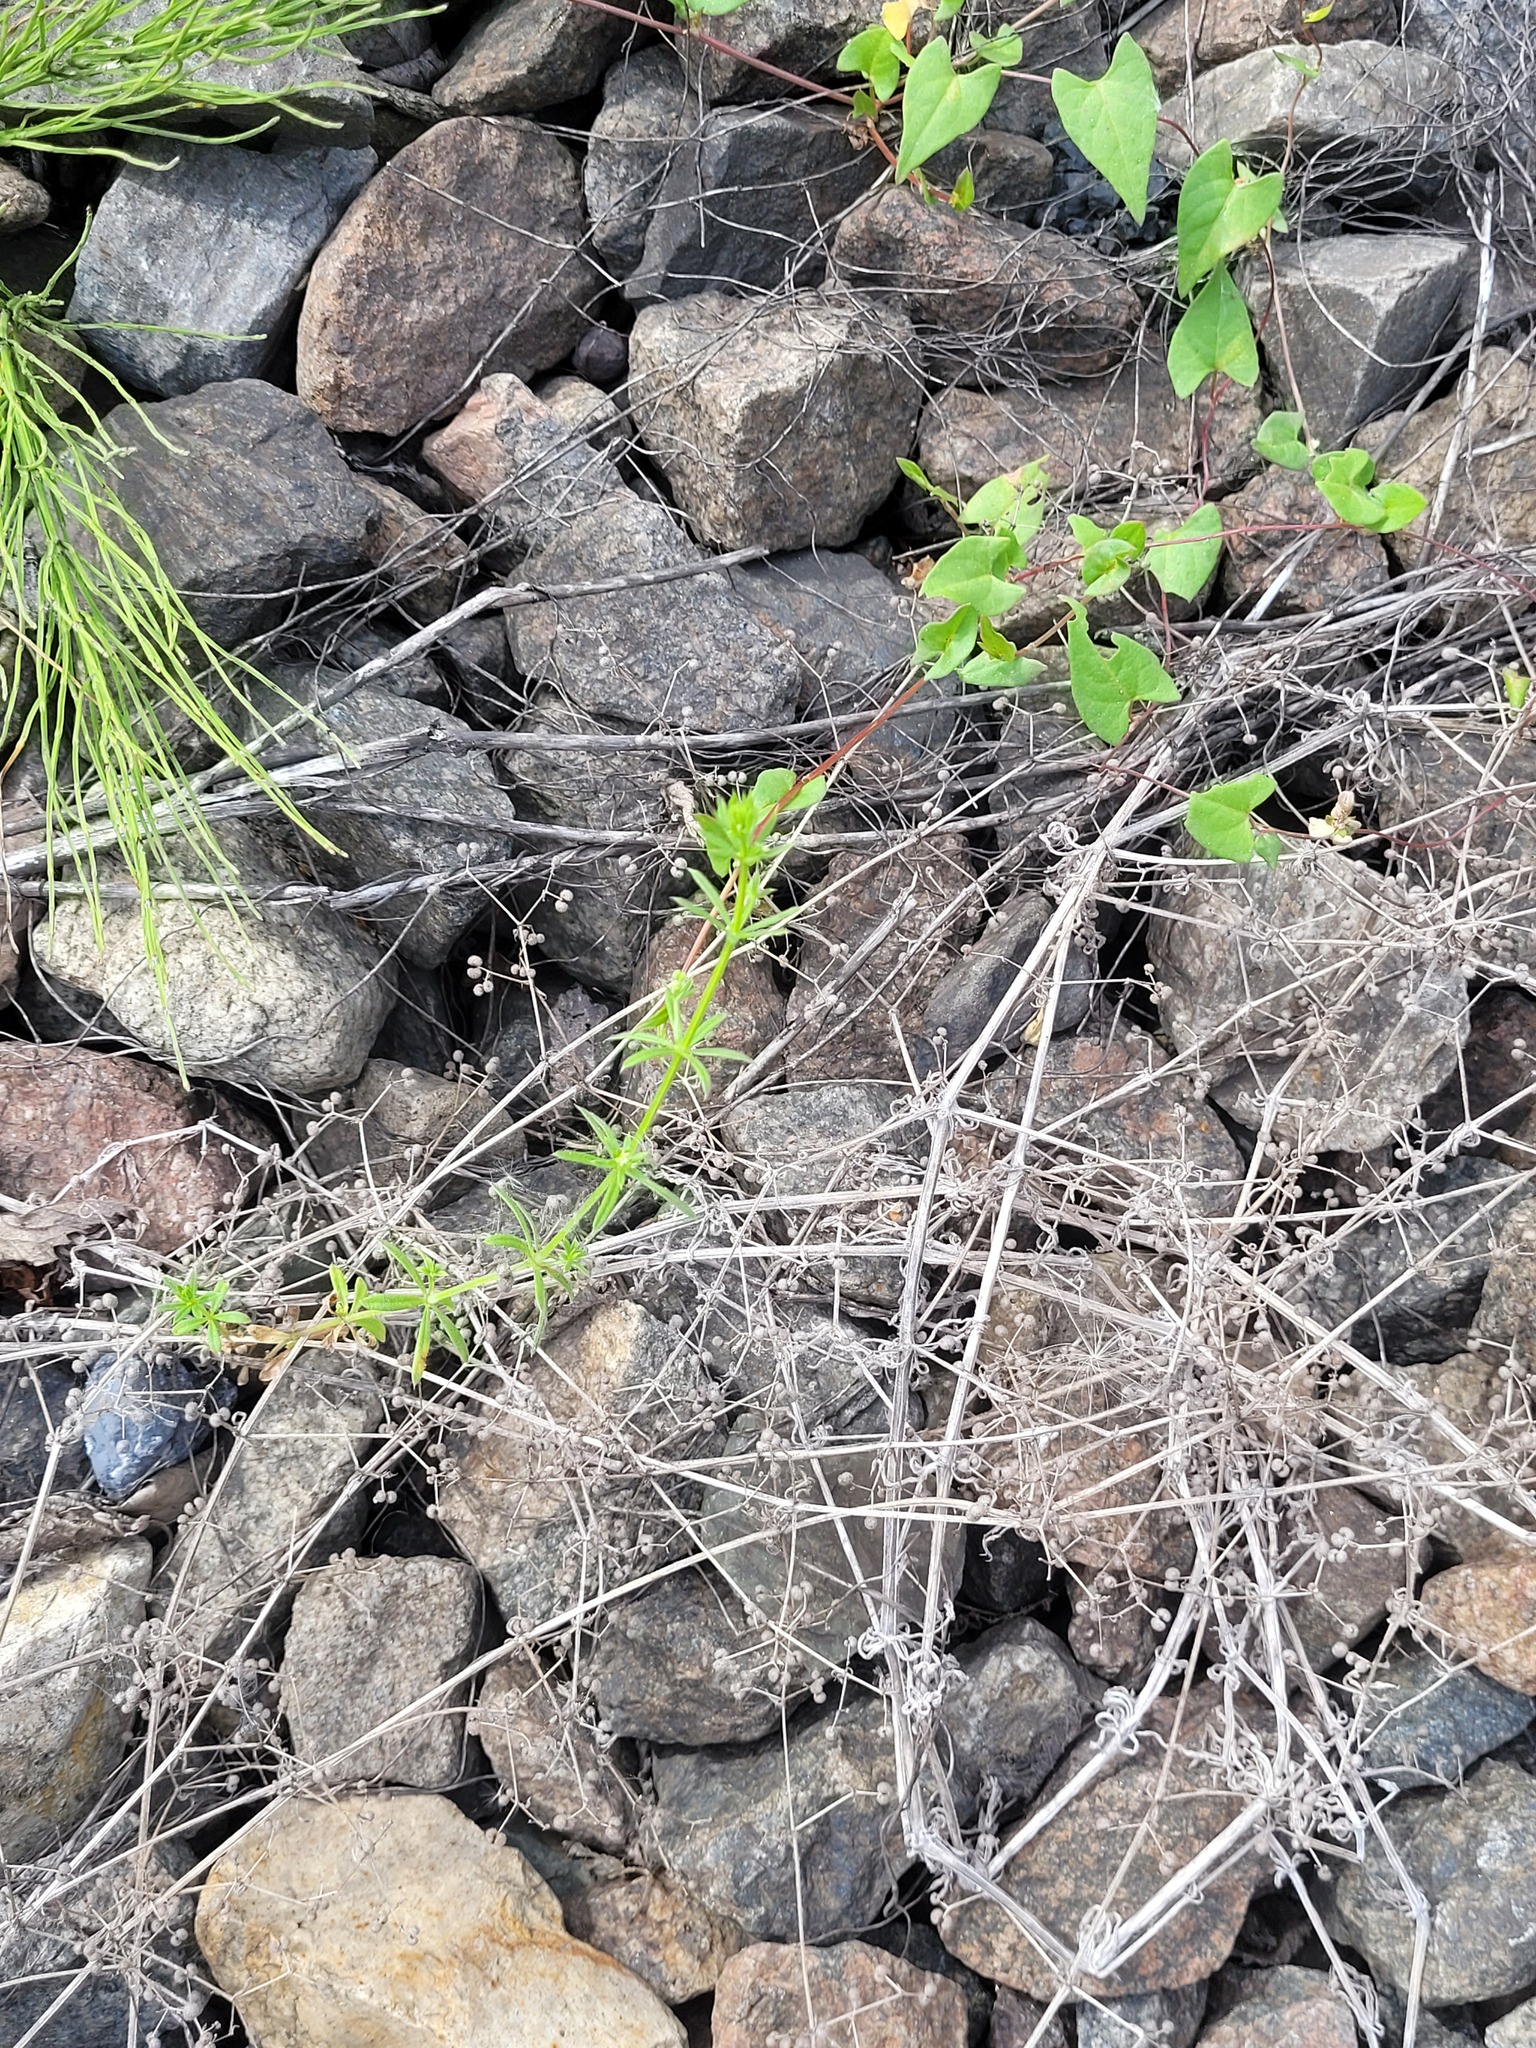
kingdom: Plantae
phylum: Tracheophyta
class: Magnoliopsida
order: Gentianales
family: Rubiaceae
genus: Galium
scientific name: Galium
